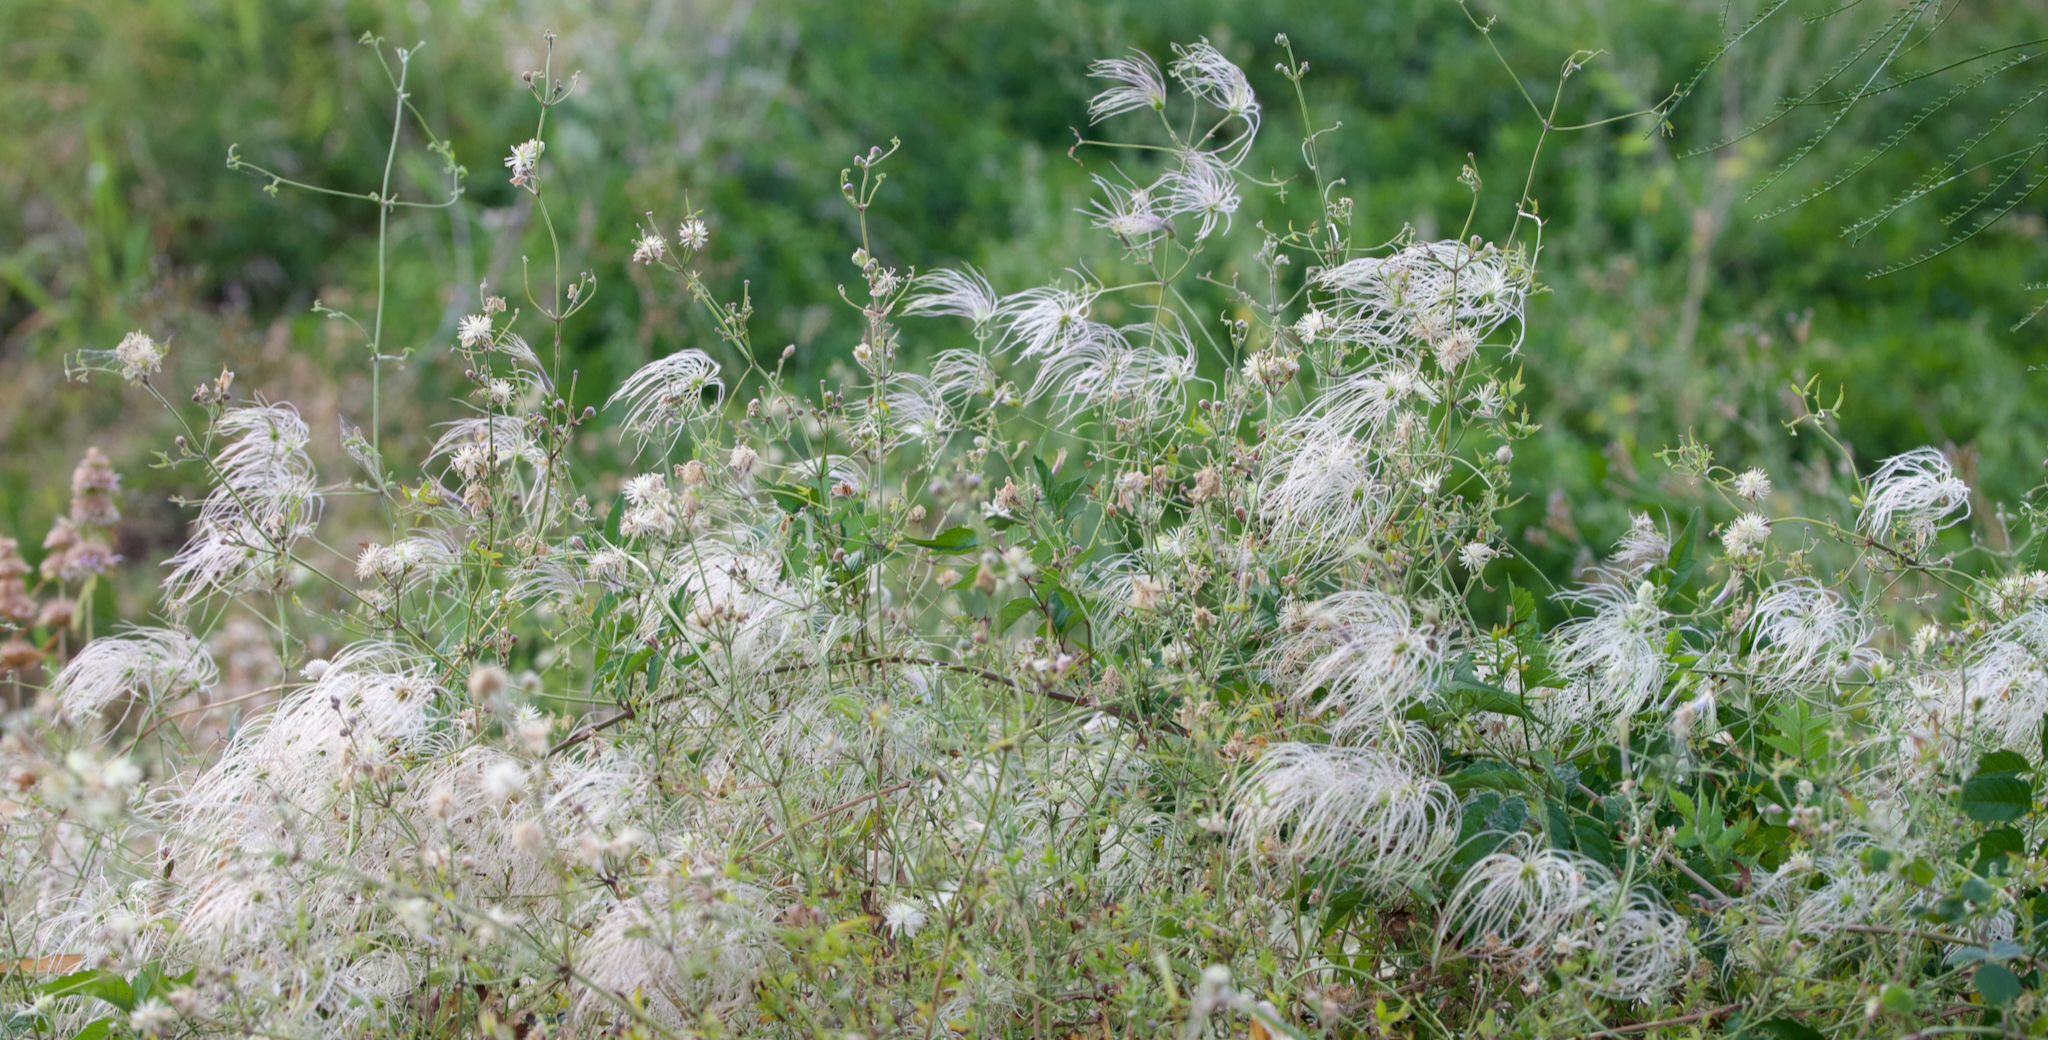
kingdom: Plantae
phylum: Tracheophyta
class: Magnoliopsida
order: Ranunculales
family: Ranunculaceae
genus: Clematis
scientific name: Clematis drummondii
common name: Texas virgin's bower
